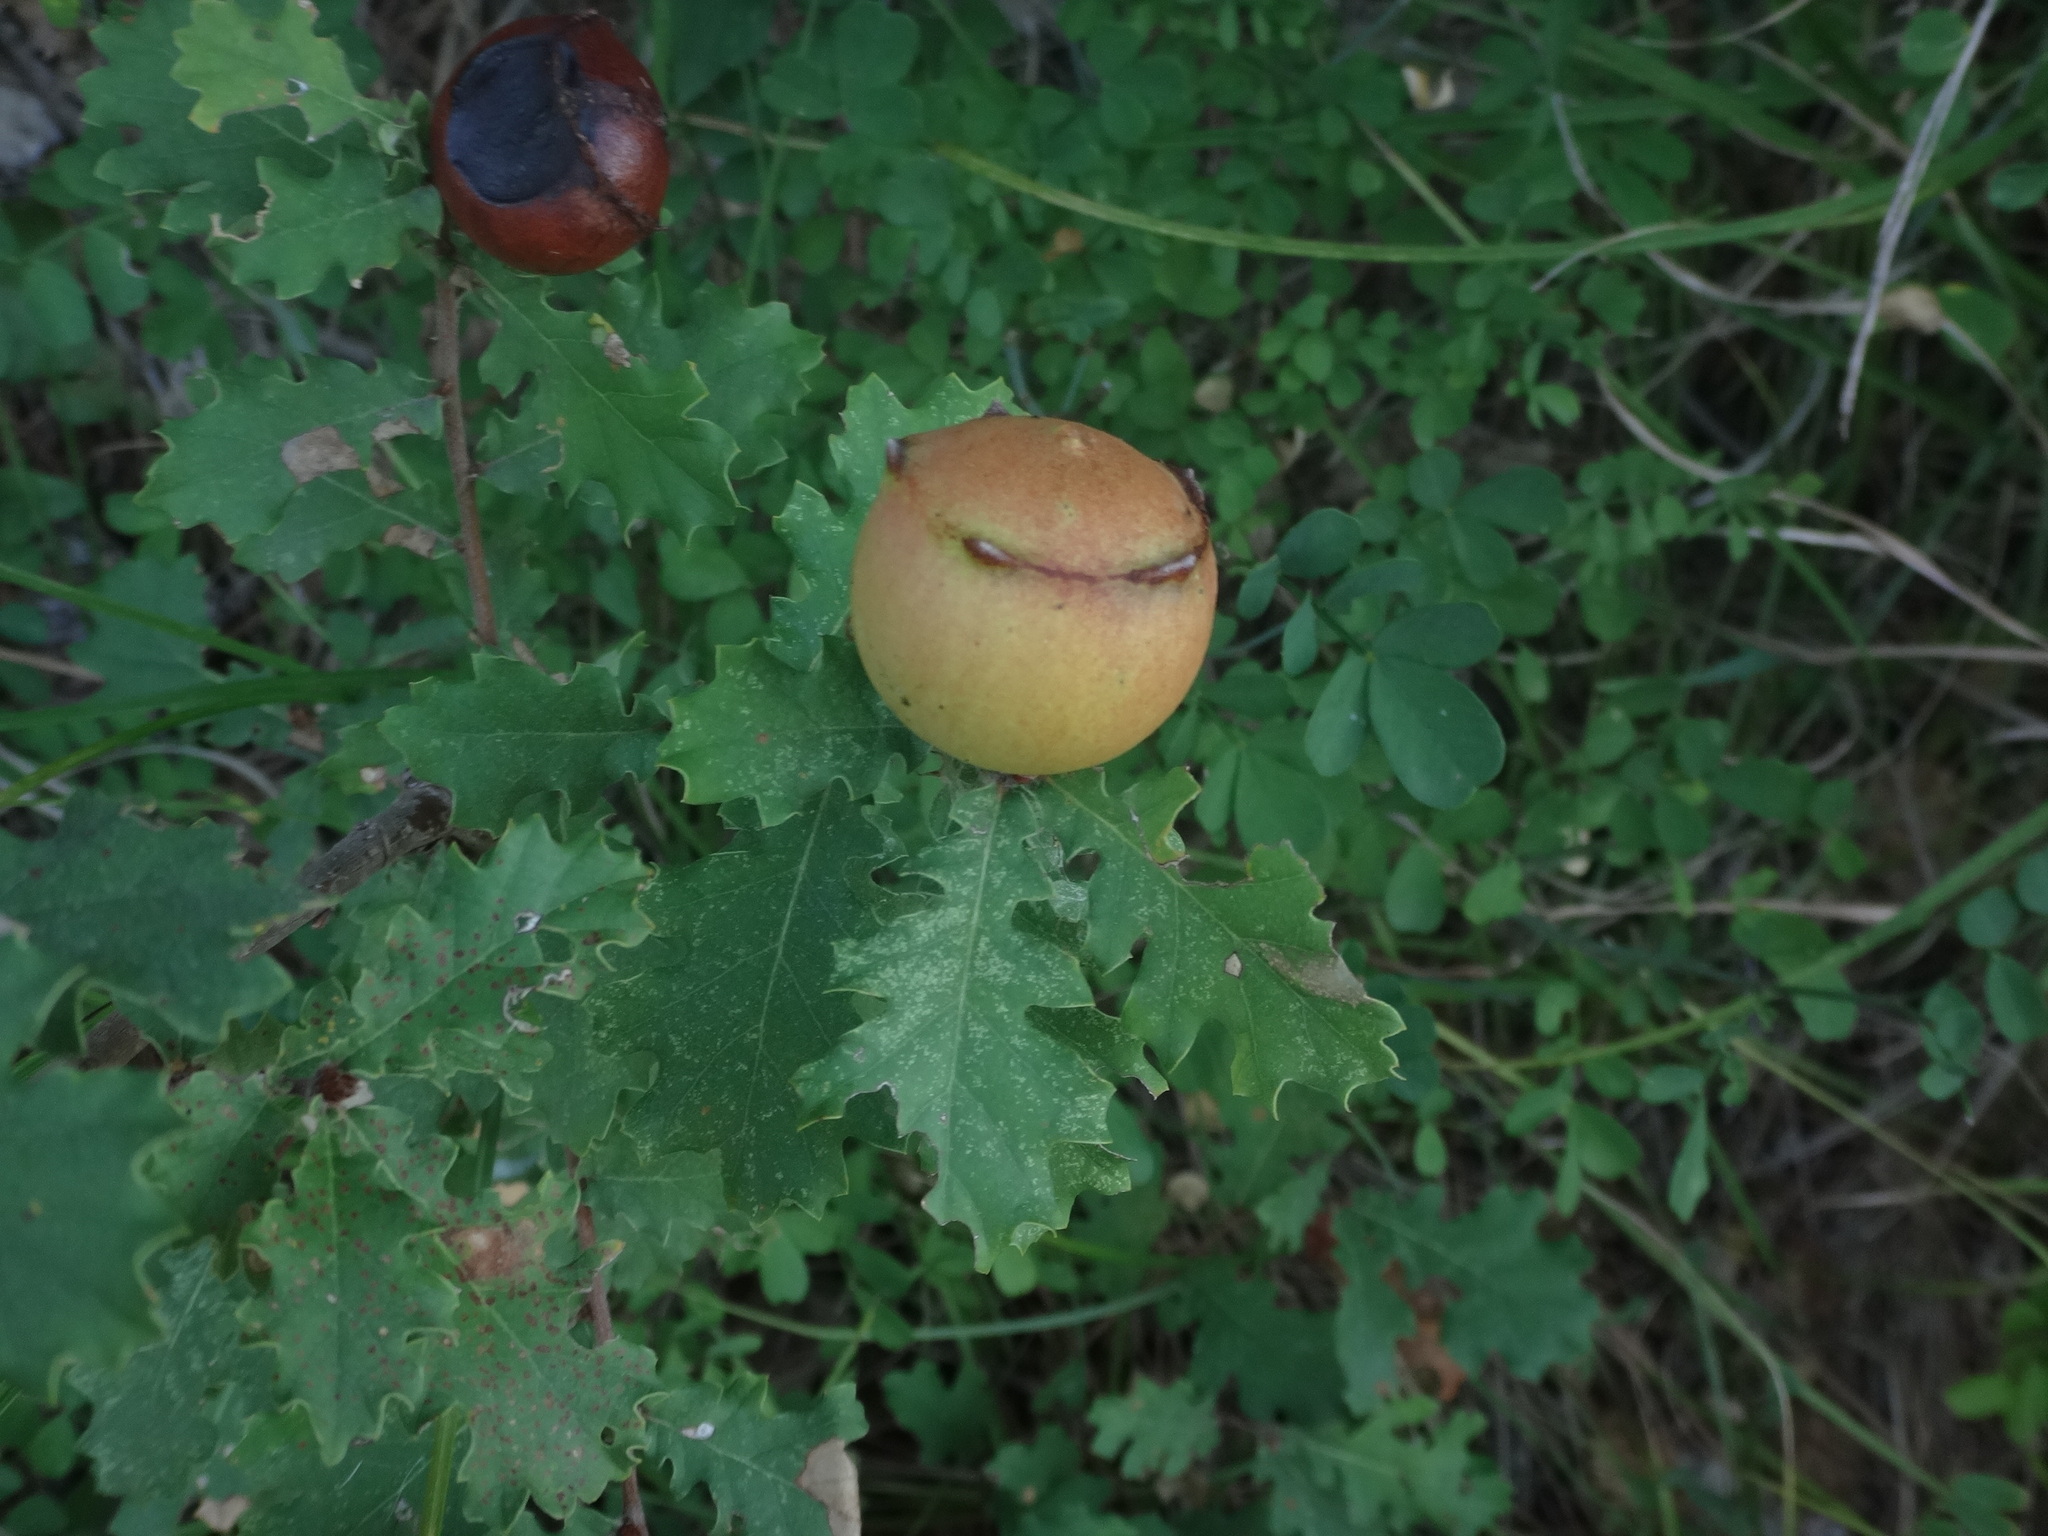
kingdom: Animalia
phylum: Arthropoda
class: Insecta
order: Hymenoptera
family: Cynipidae
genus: Andricus
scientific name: Andricus quercustozae
